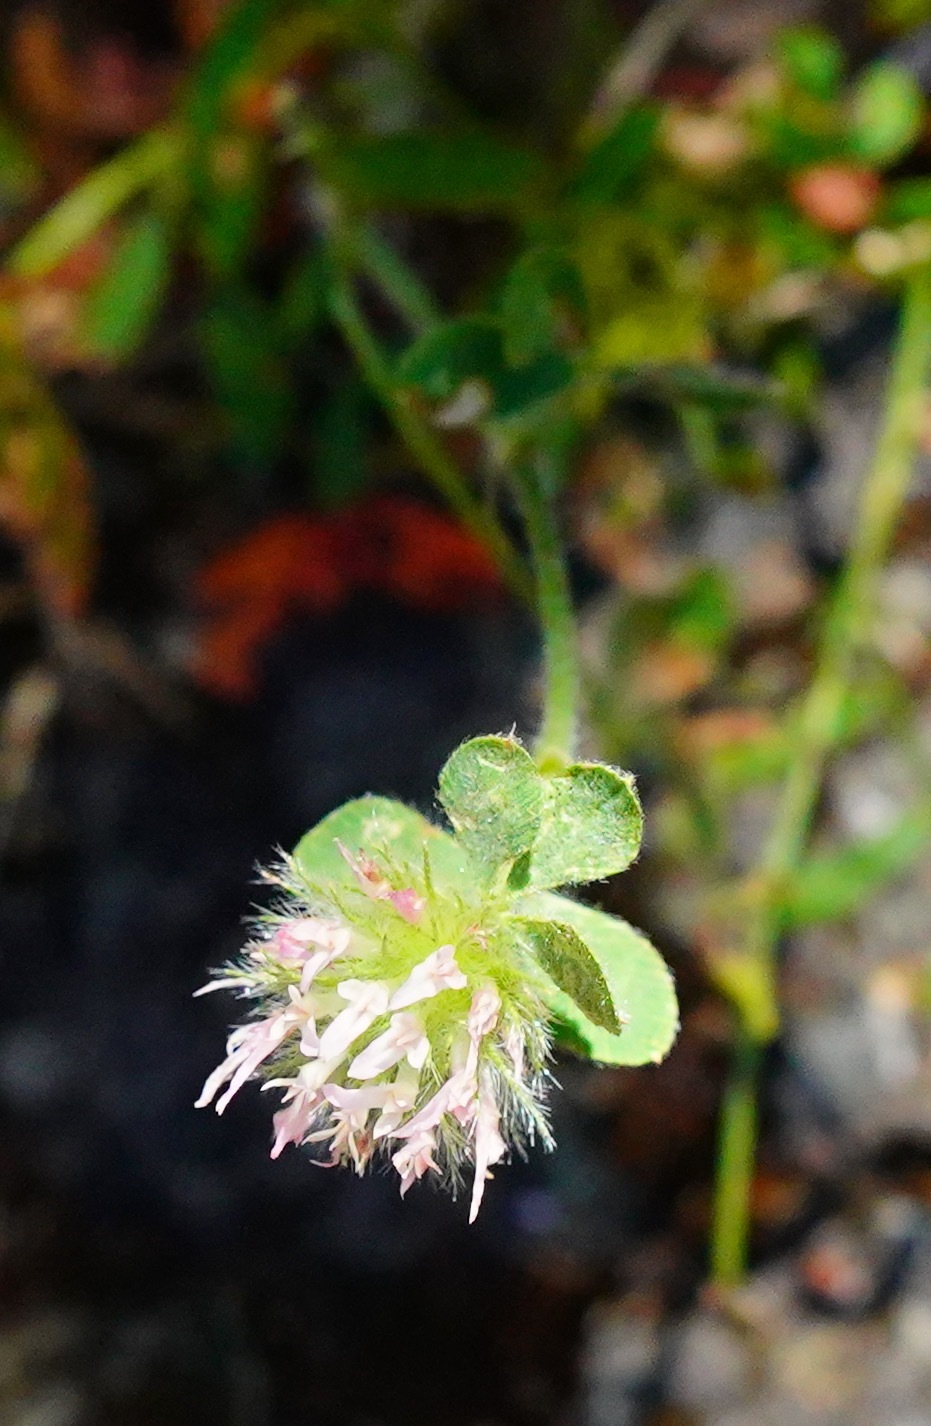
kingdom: Plantae
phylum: Tracheophyta
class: Magnoliopsida
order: Fabales
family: Fabaceae
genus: Trifolium
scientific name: Trifolium hirtum
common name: Rose clover
